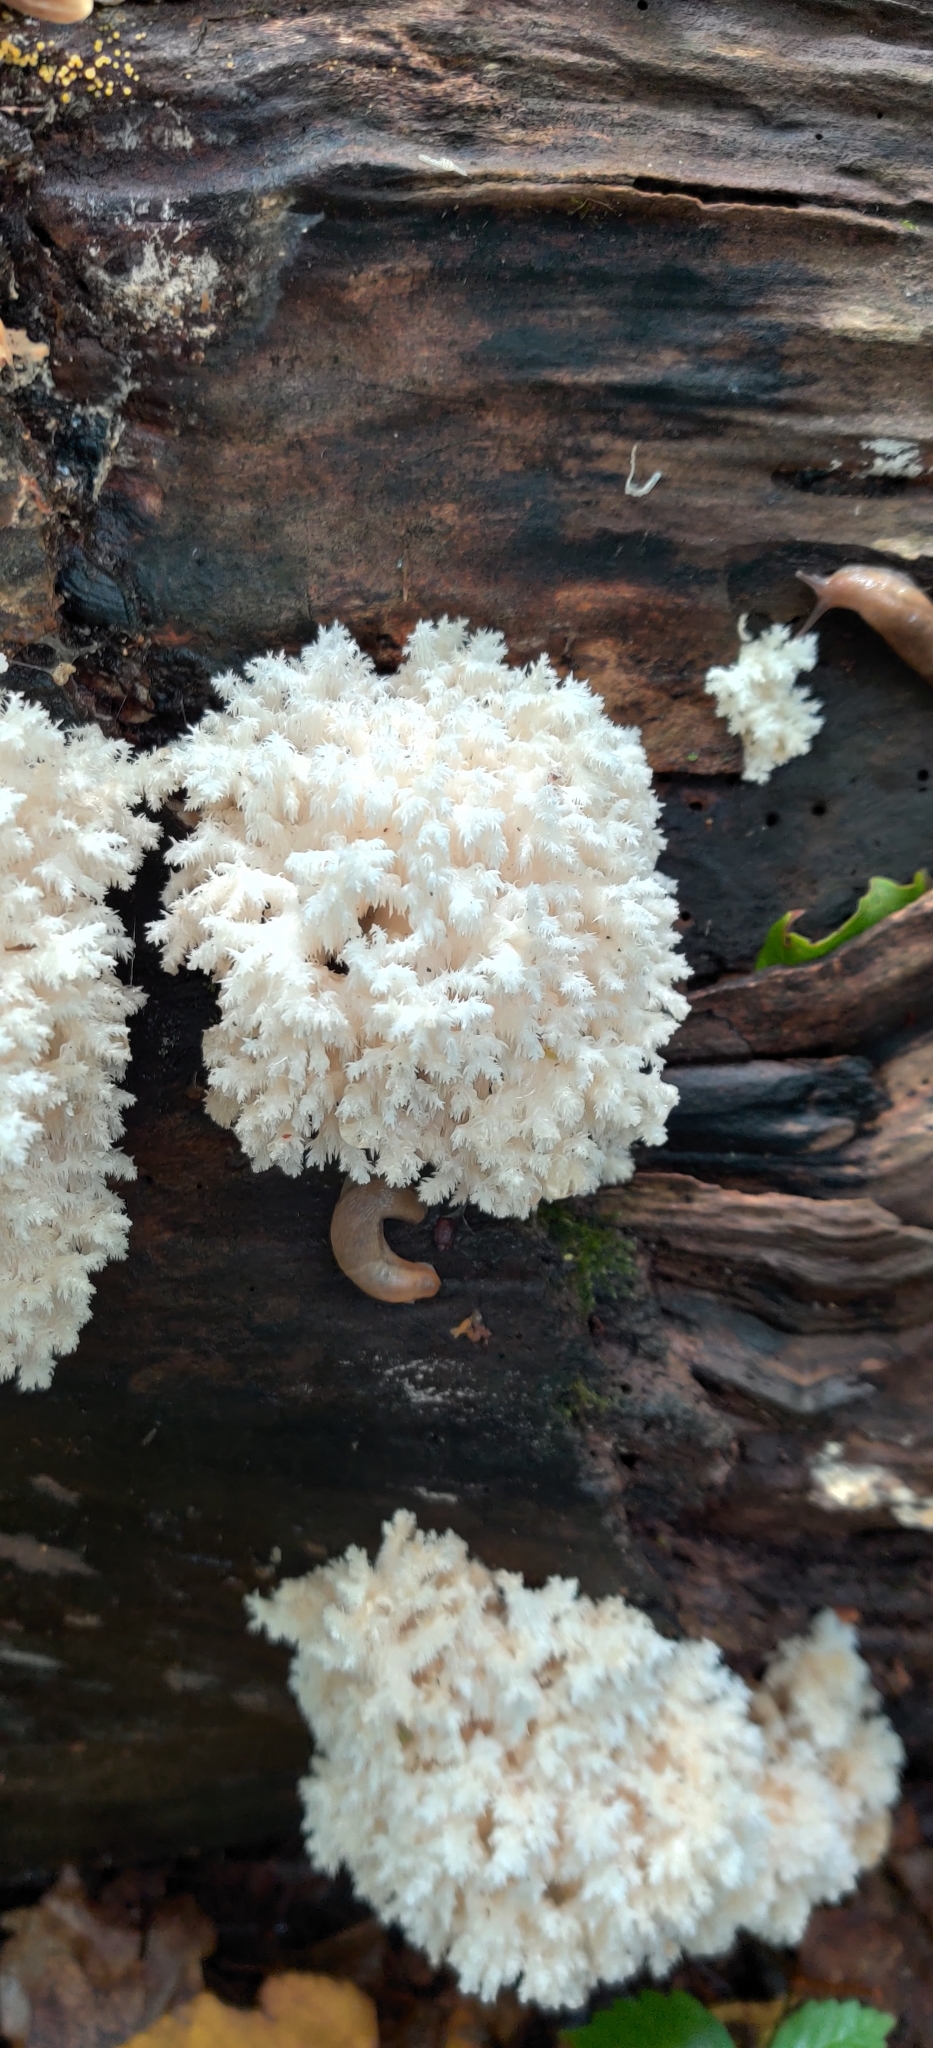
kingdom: Fungi
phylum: Basidiomycota
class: Agaricomycetes
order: Russulales
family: Hericiaceae
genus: Hericium
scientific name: Hericium coralloides
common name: Coral tooth
